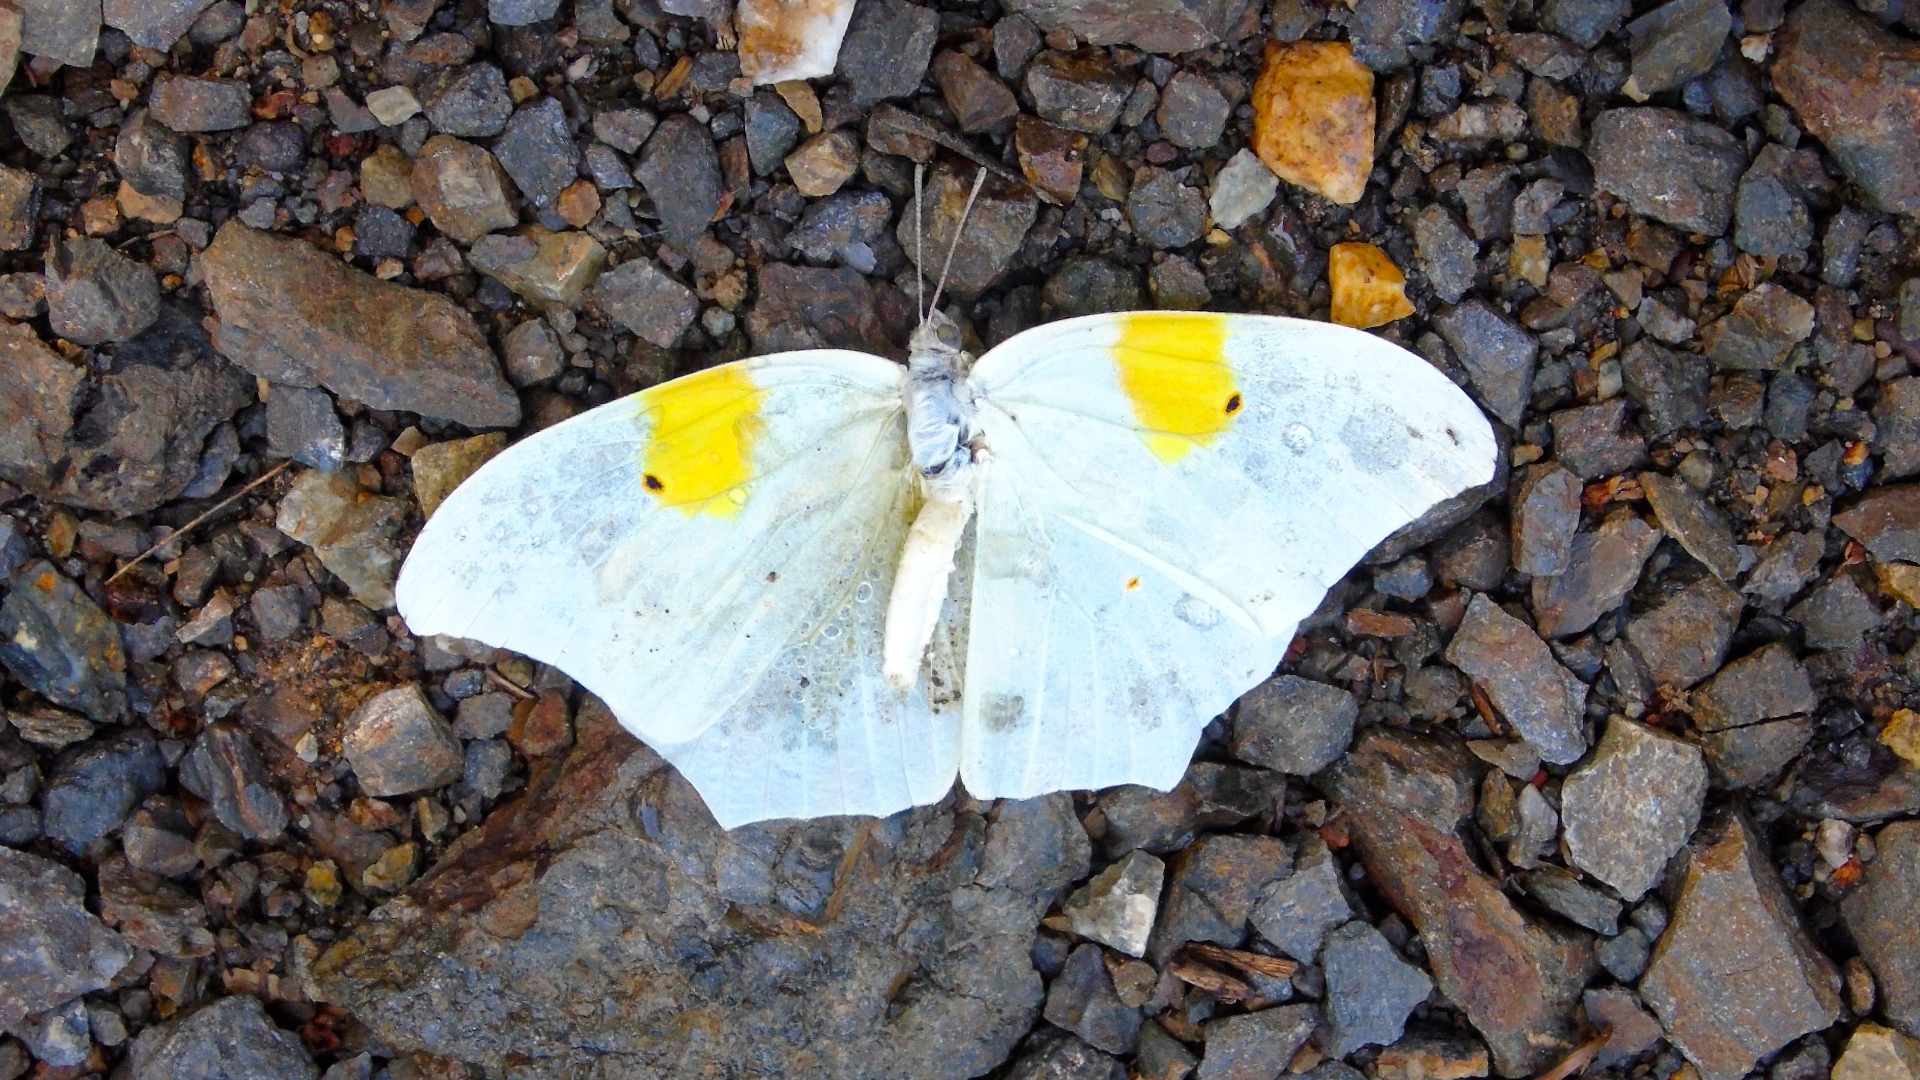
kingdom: Animalia
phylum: Arthropoda
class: Insecta
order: Lepidoptera
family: Pieridae
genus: Anteos
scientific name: Anteos clorinde
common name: White angled sulphur
